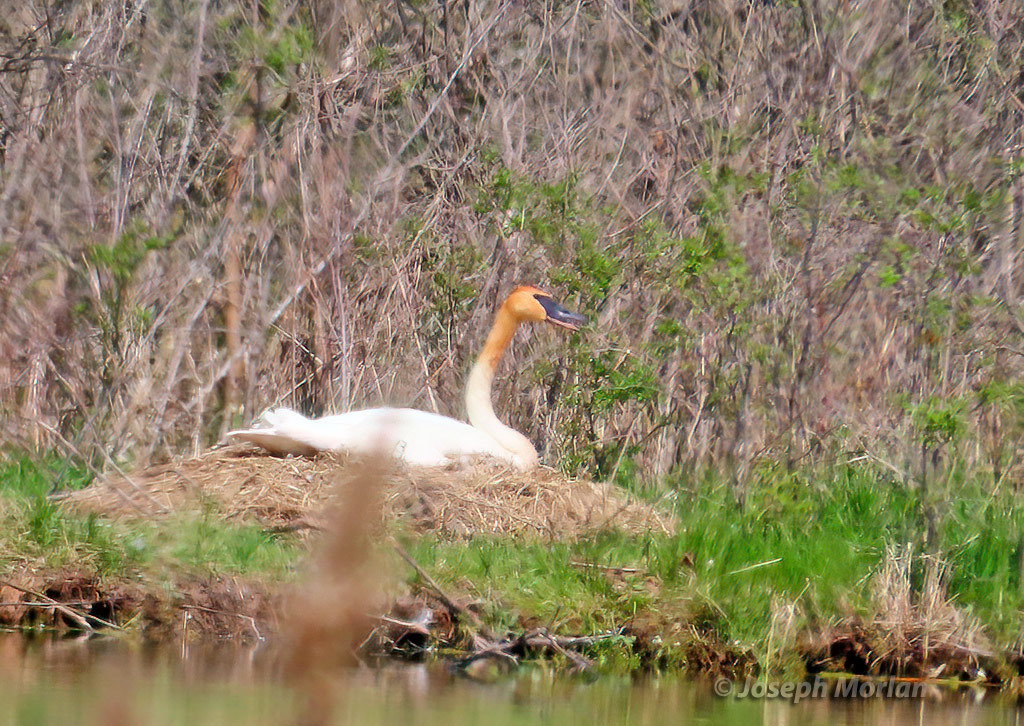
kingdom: Animalia
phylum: Chordata
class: Aves
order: Anseriformes
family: Anatidae
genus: Cygnus
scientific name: Cygnus buccinator
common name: Trumpeter swan
